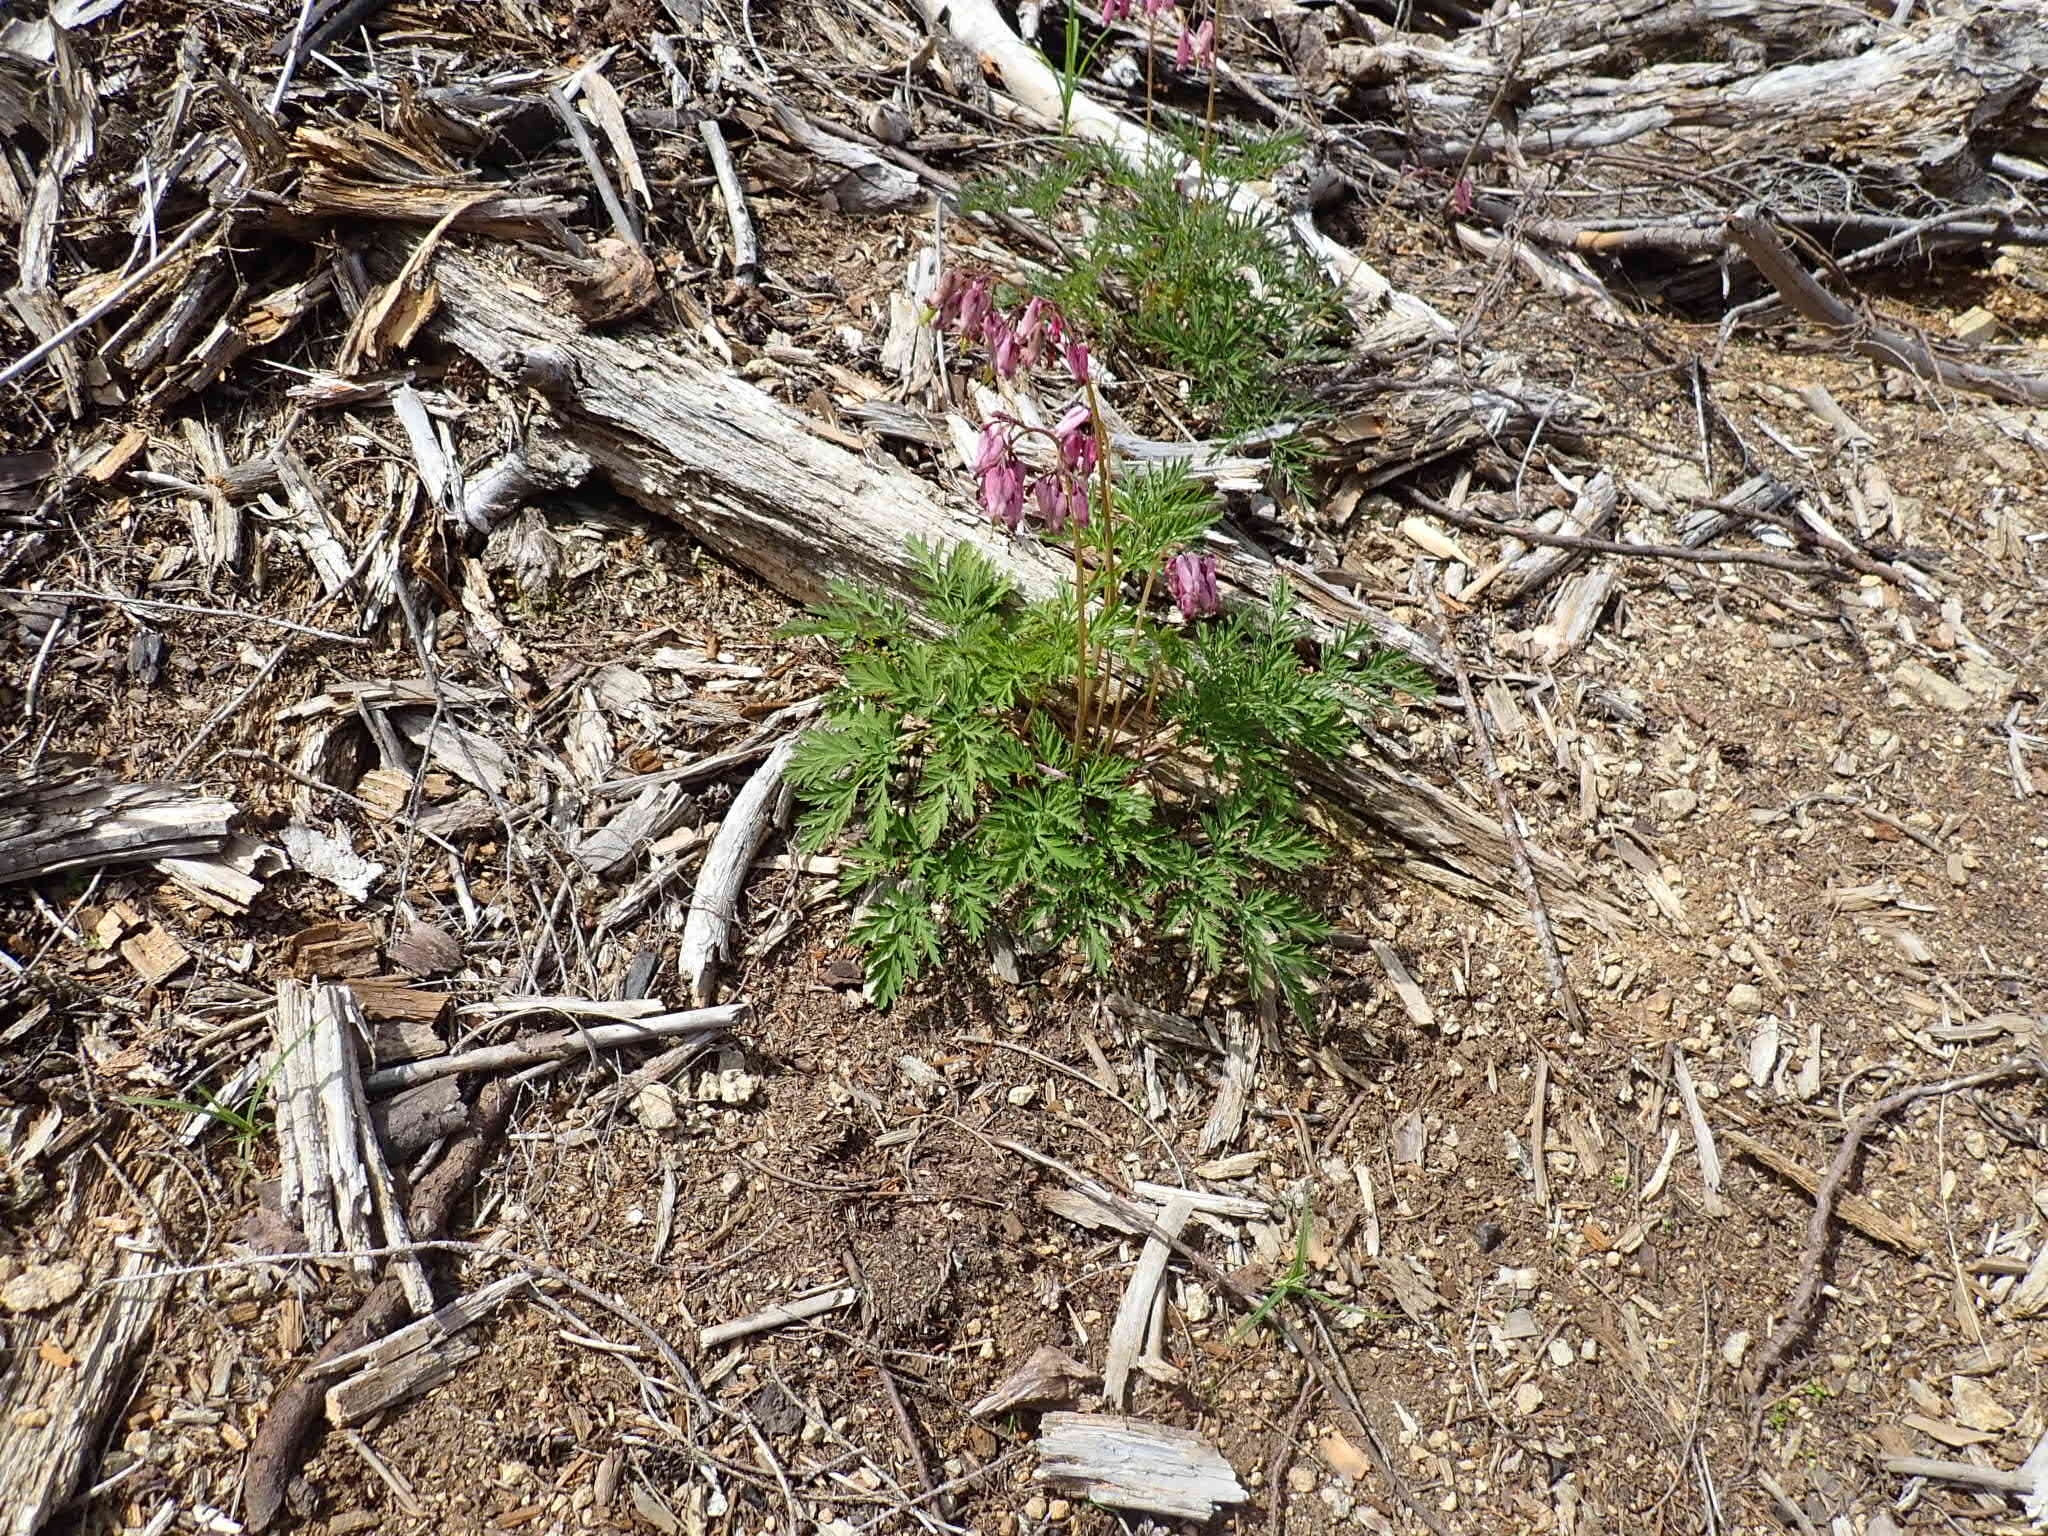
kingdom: Plantae
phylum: Tracheophyta
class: Magnoliopsida
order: Ranunculales
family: Papaveraceae
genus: Dicentra
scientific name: Dicentra formosa
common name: Bleeding-heart
